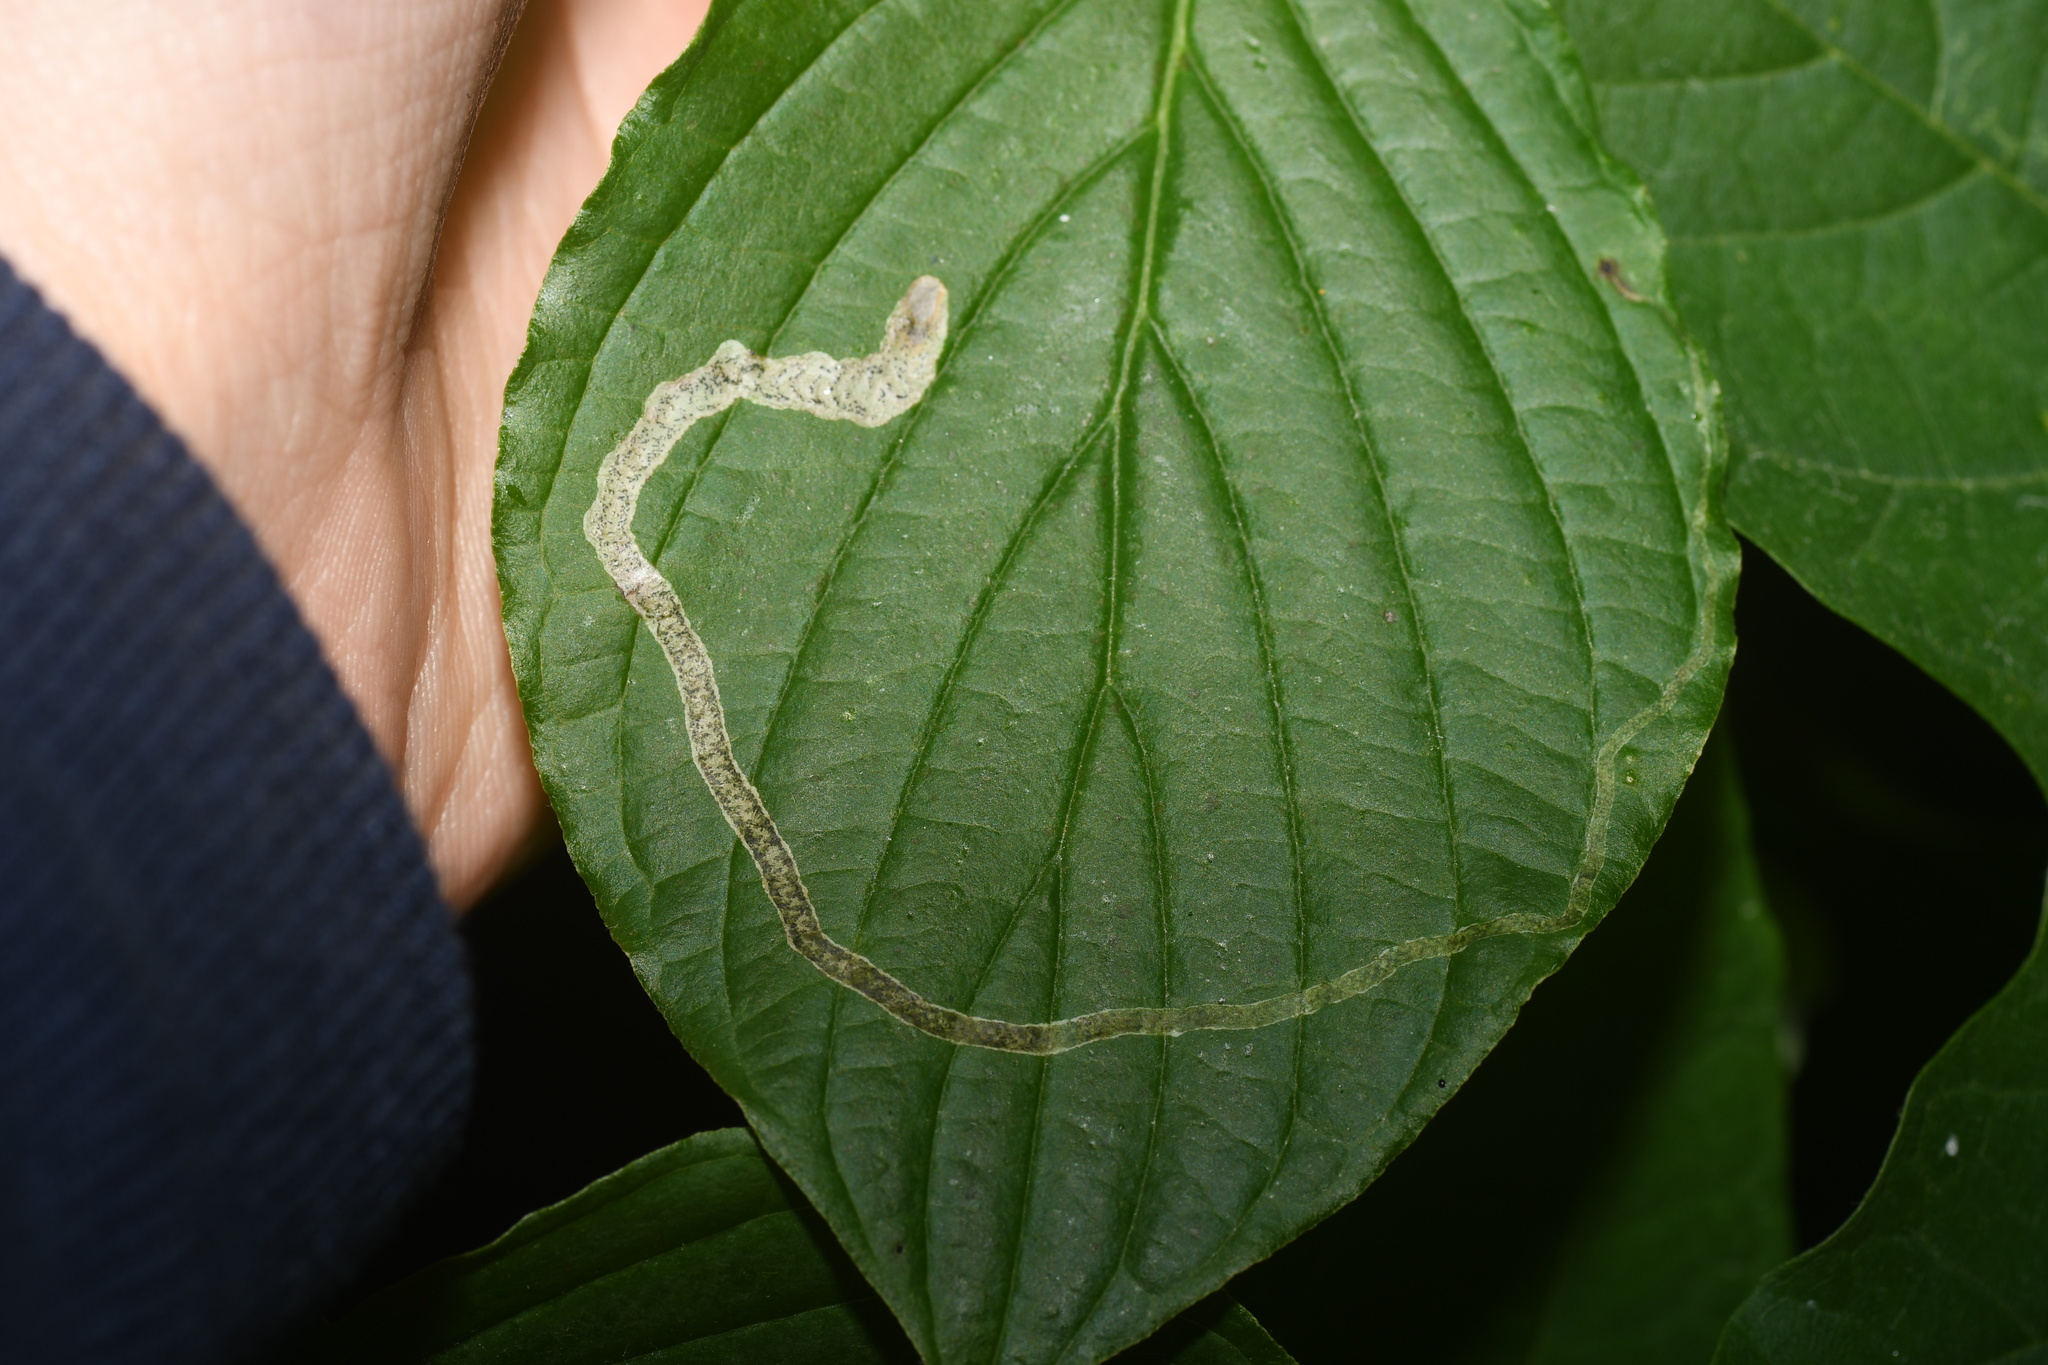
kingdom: Animalia
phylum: Arthropoda
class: Insecta
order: Diptera
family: Agromyzidae
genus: Phytomyza
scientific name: Phytomyza agromyzina
